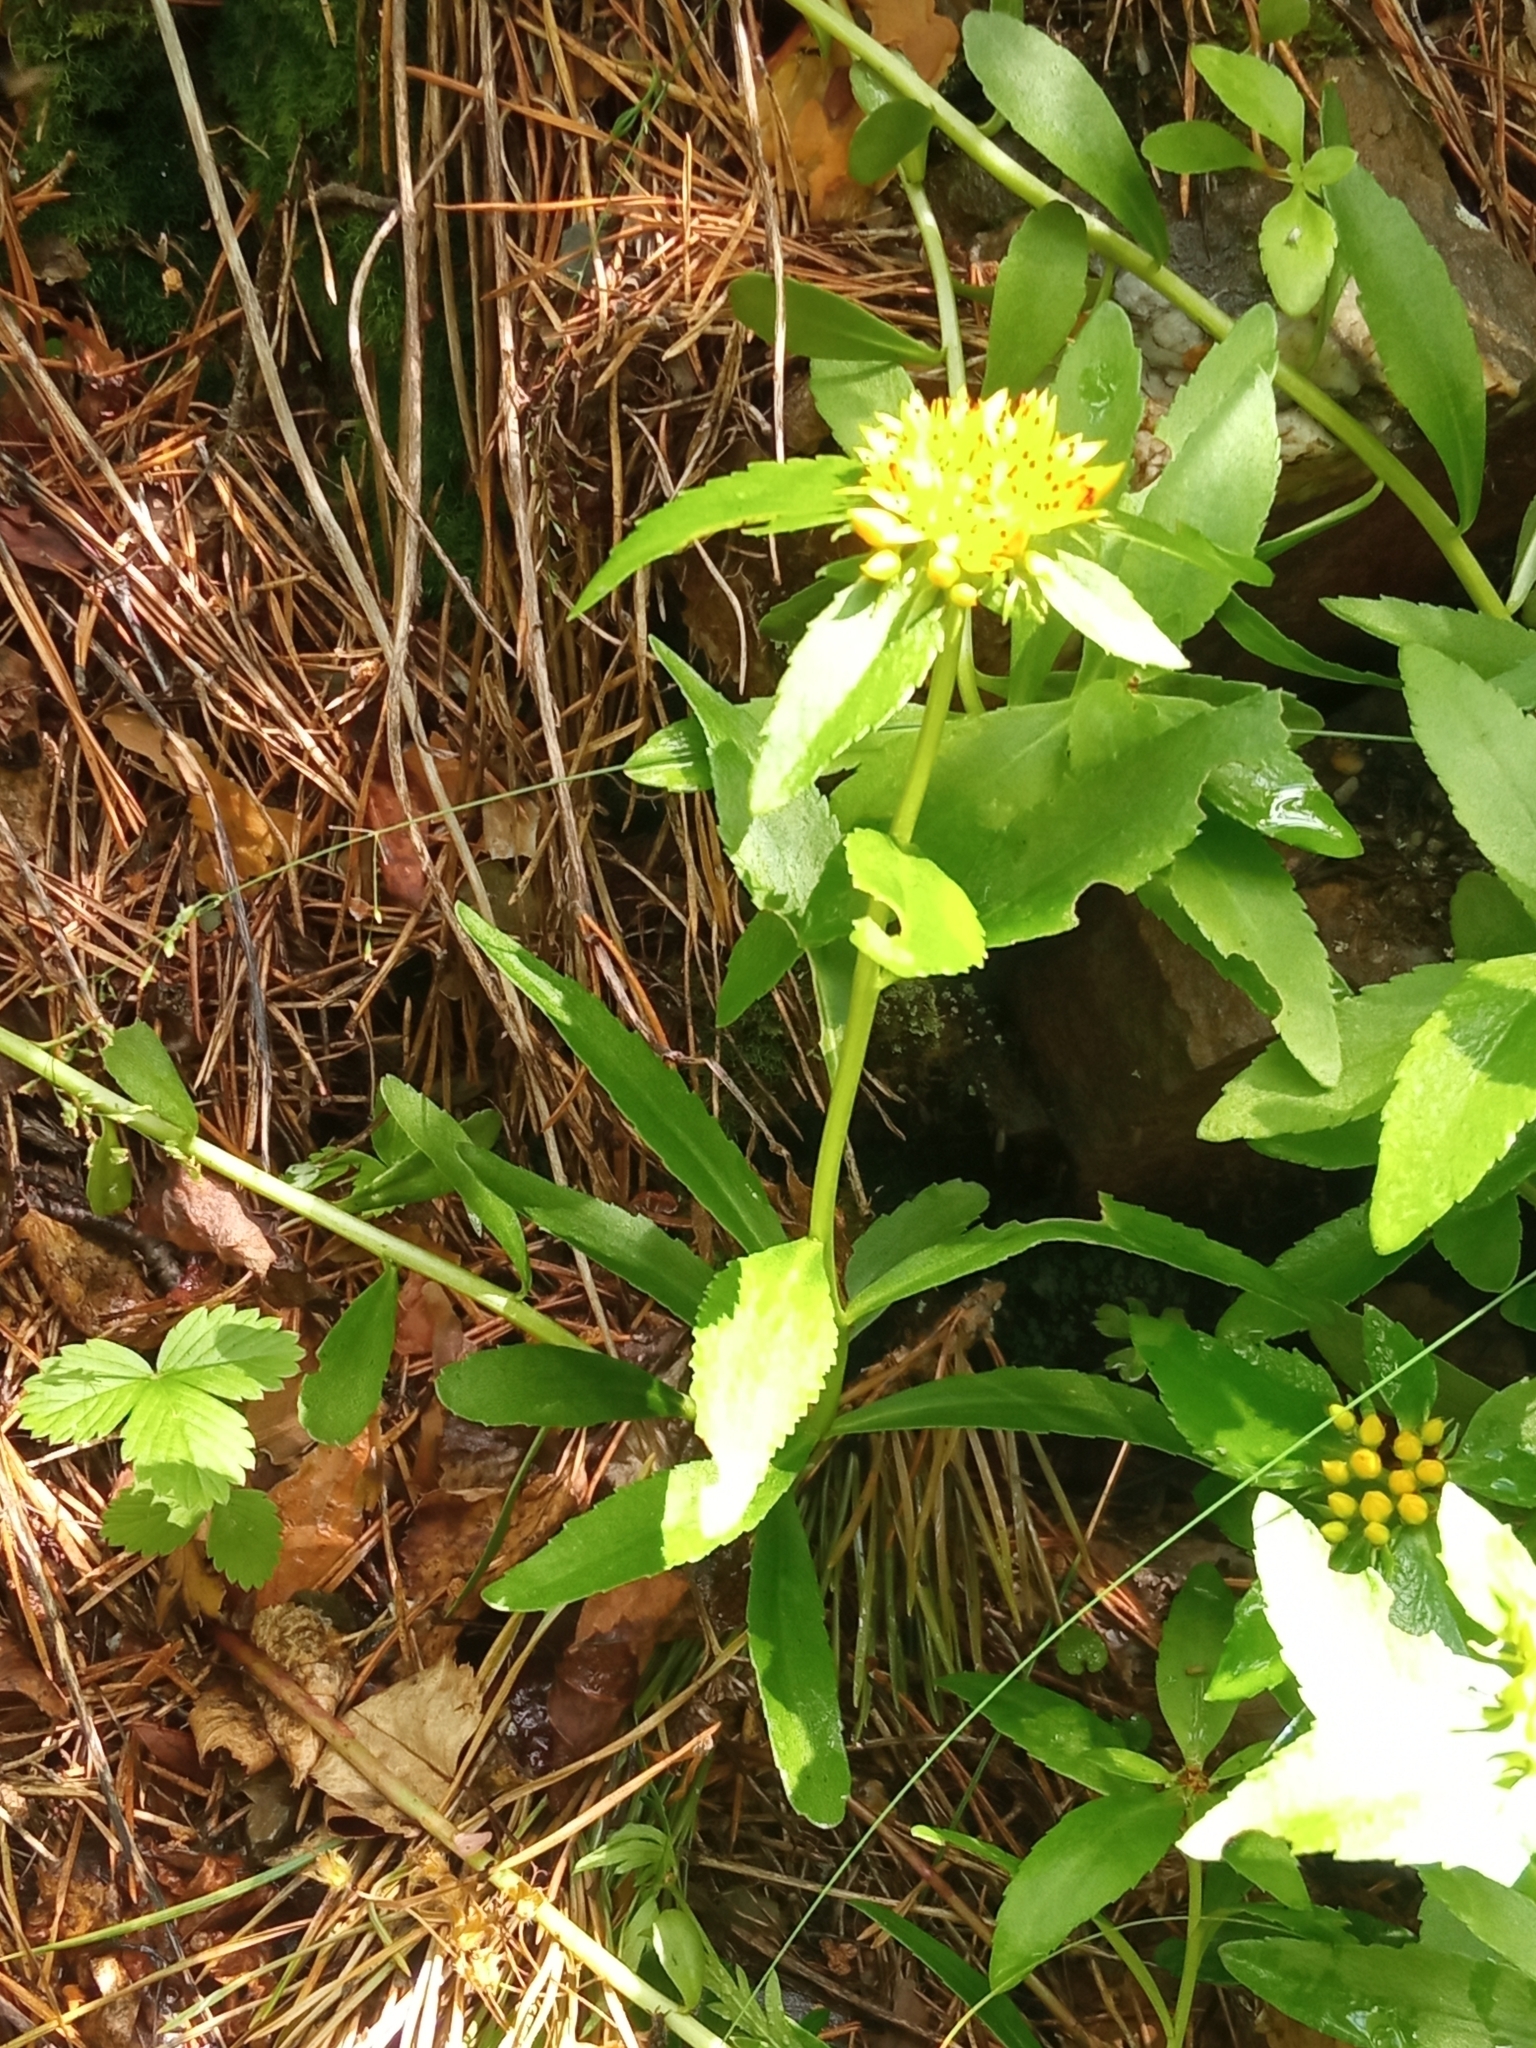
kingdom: Plantae
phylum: Tracheophyta
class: Magnoliopsida
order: Saxifragales
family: Crassulaceae
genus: Phedimus
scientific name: Phedimus aizoon
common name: Orpin aizoon
